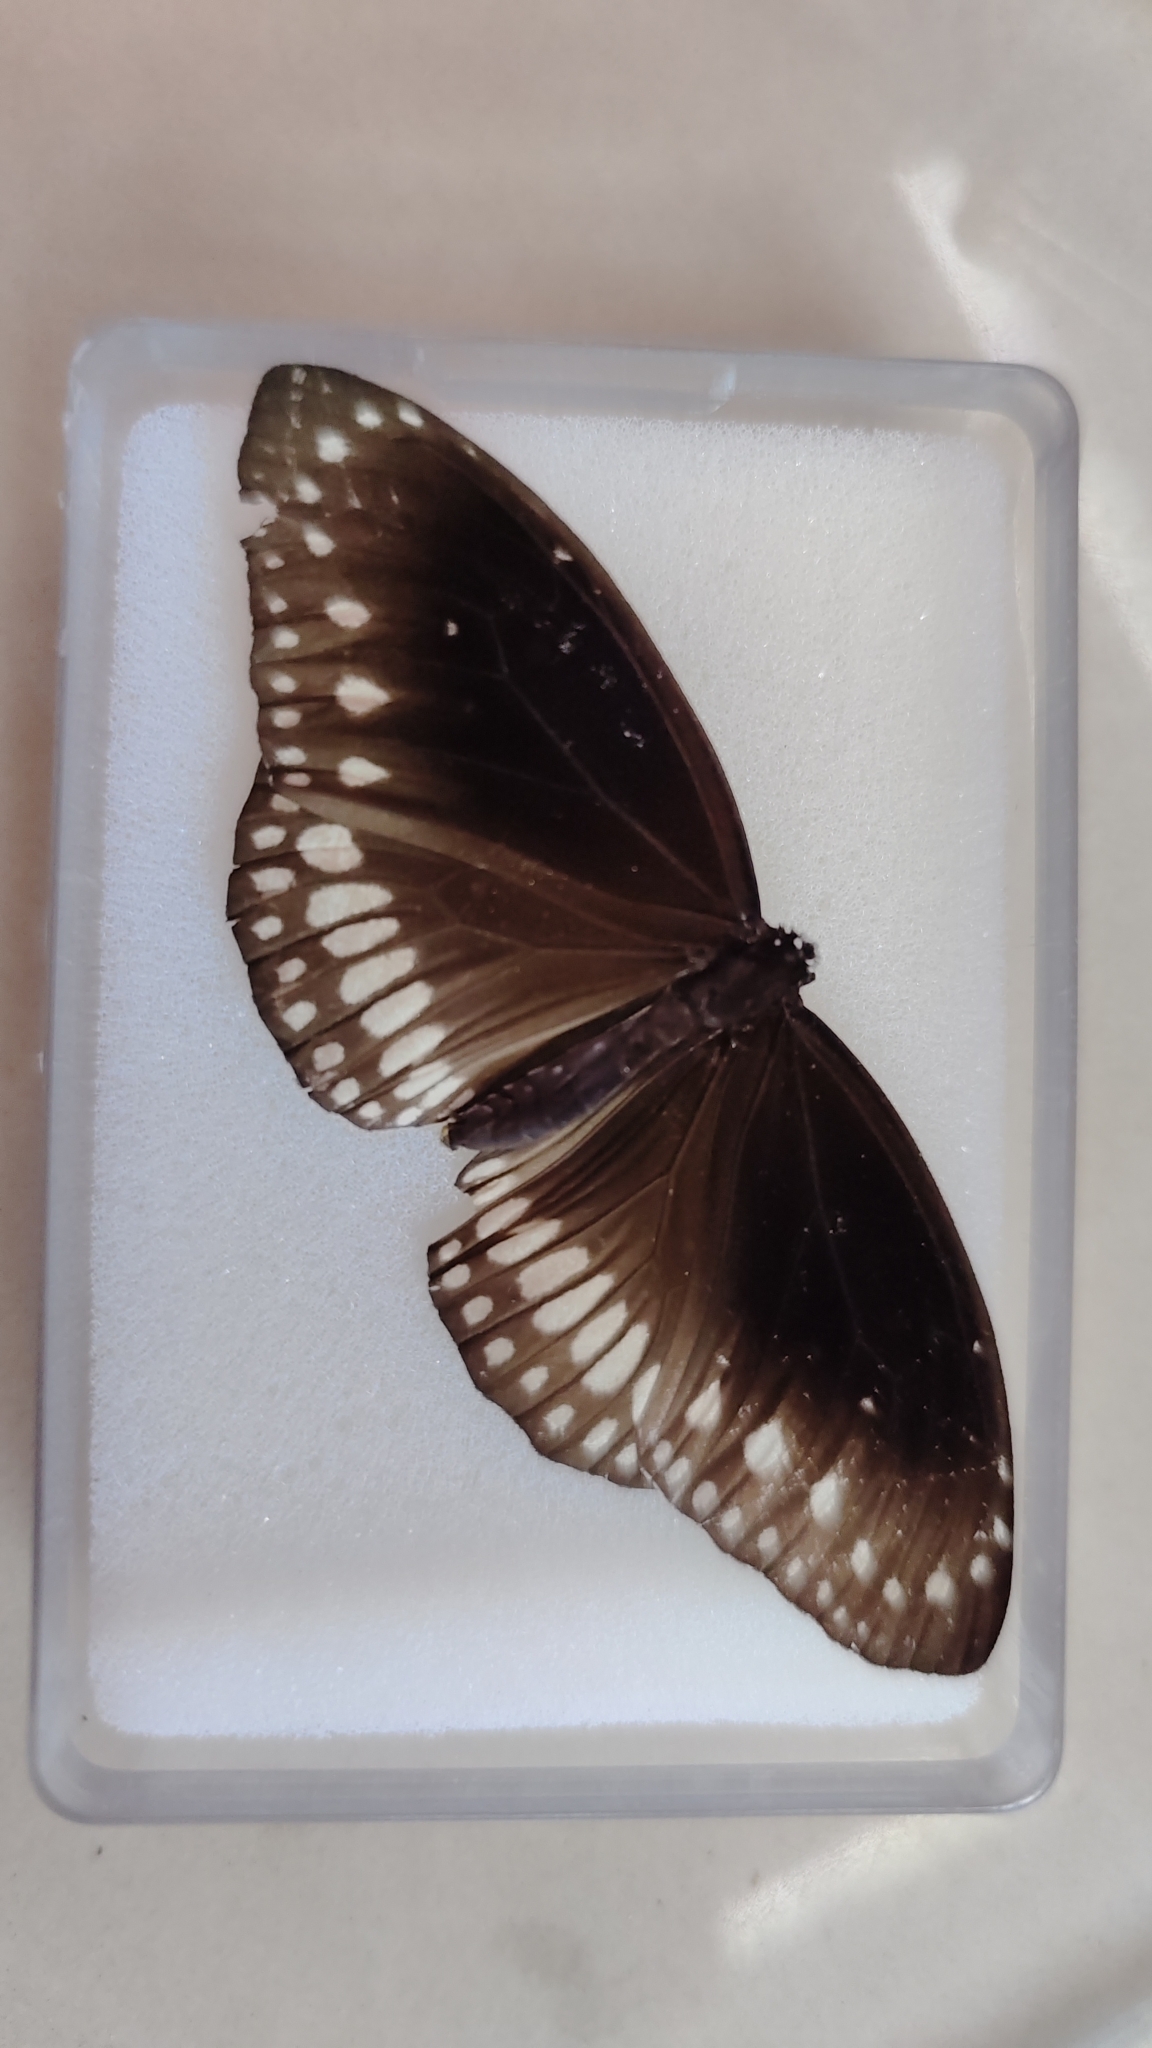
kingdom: Animalia
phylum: Arthropoda
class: Insecta
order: Lepidoptera
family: Nymphalidae
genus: Euploea
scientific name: Euploea core
